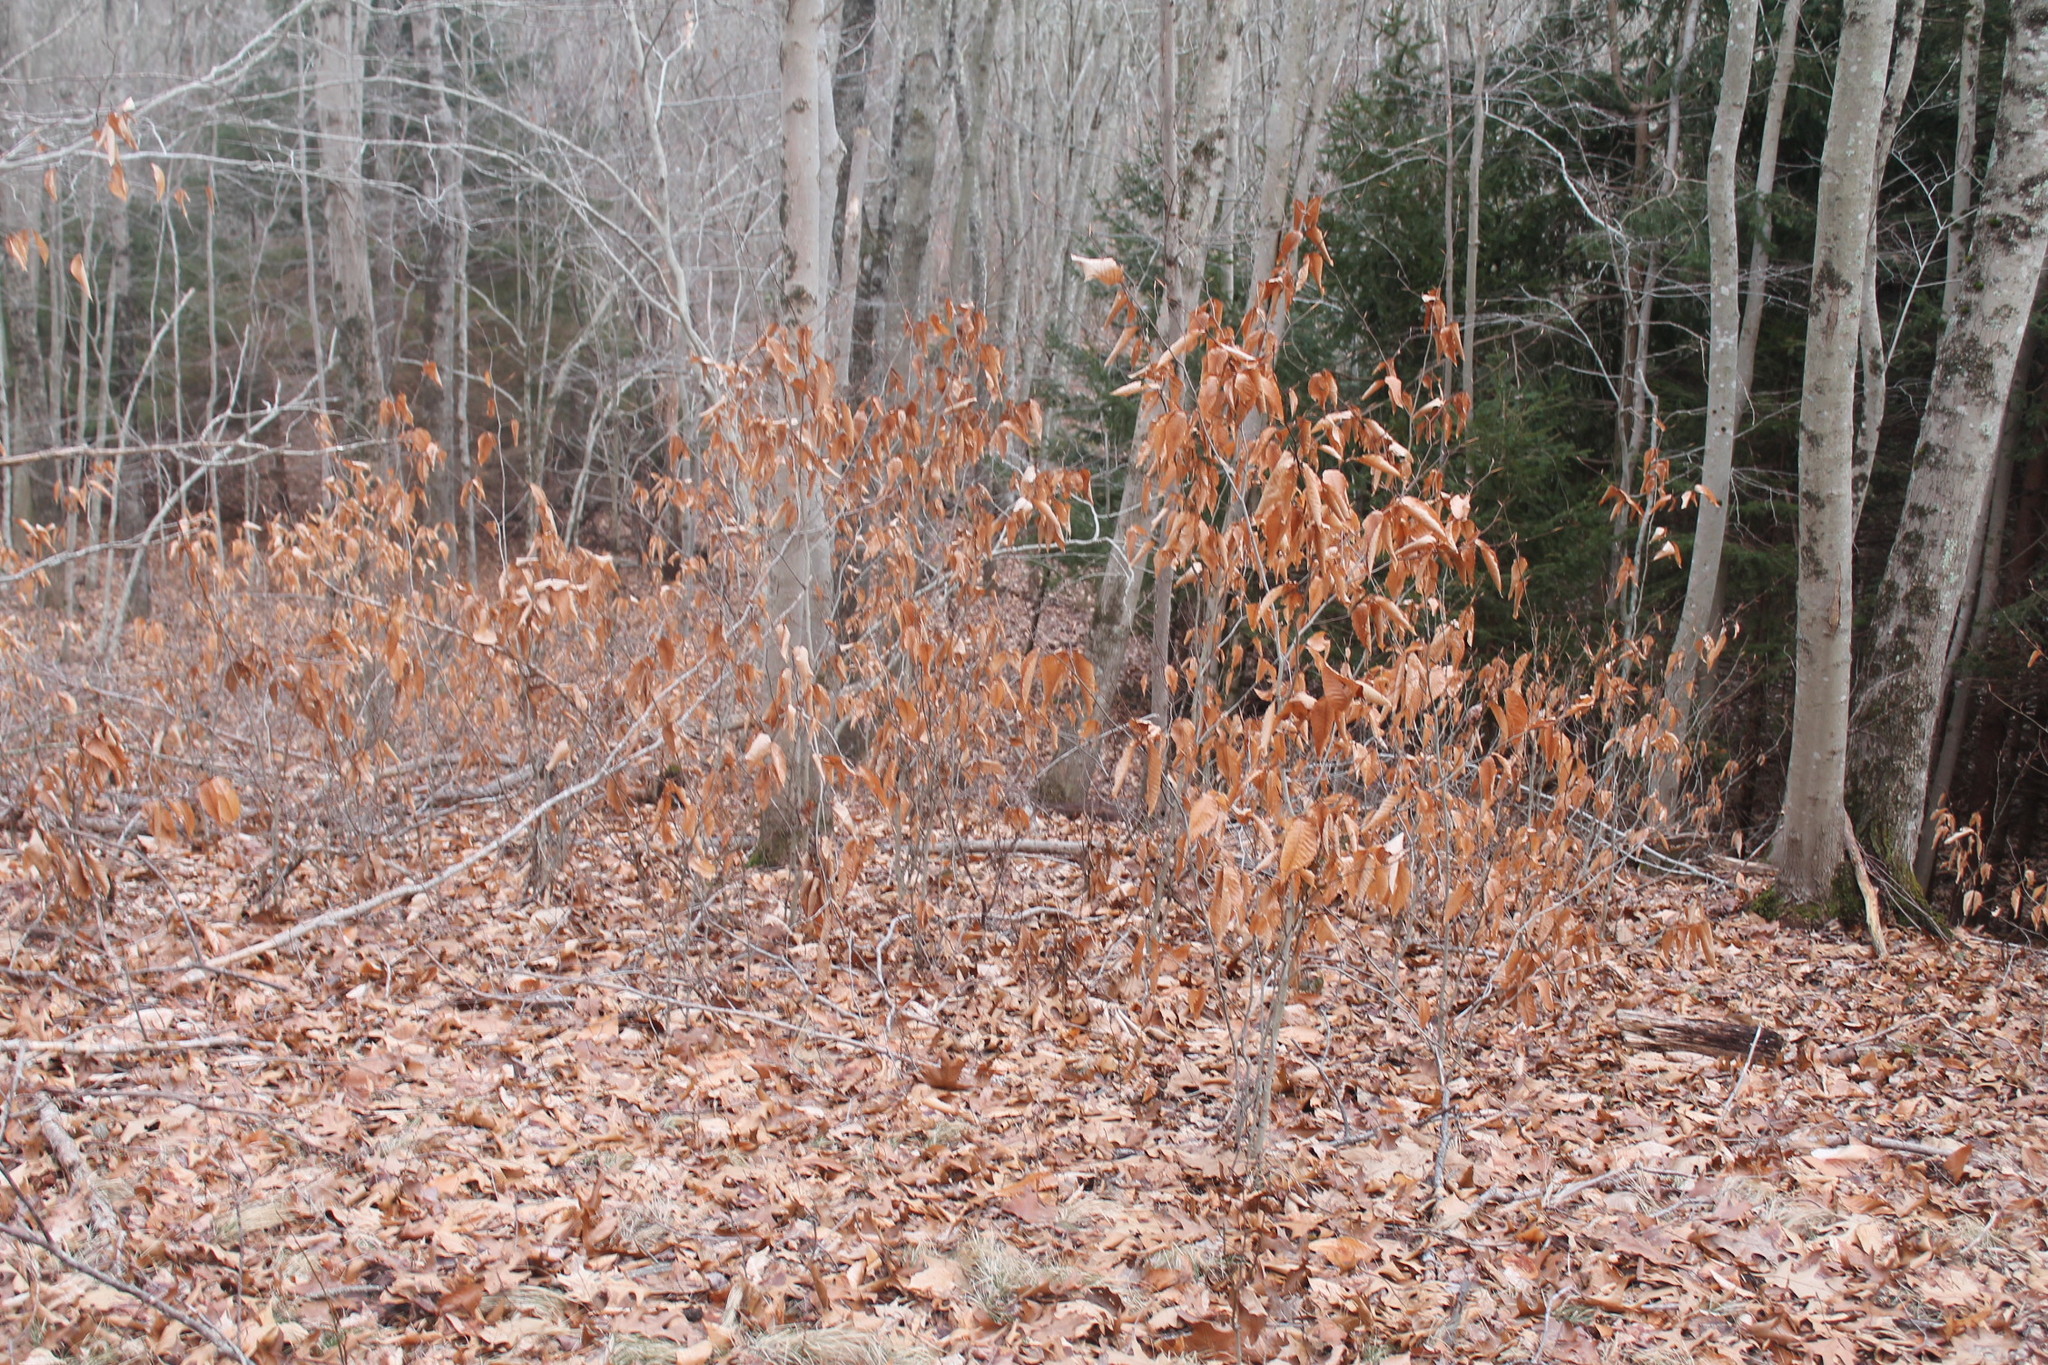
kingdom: Plantae
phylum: Tracheophyta
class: Magnoliopsida
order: Fagales
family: Fagaceae
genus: Fagus
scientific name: Fagus grandifolia
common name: American beech
